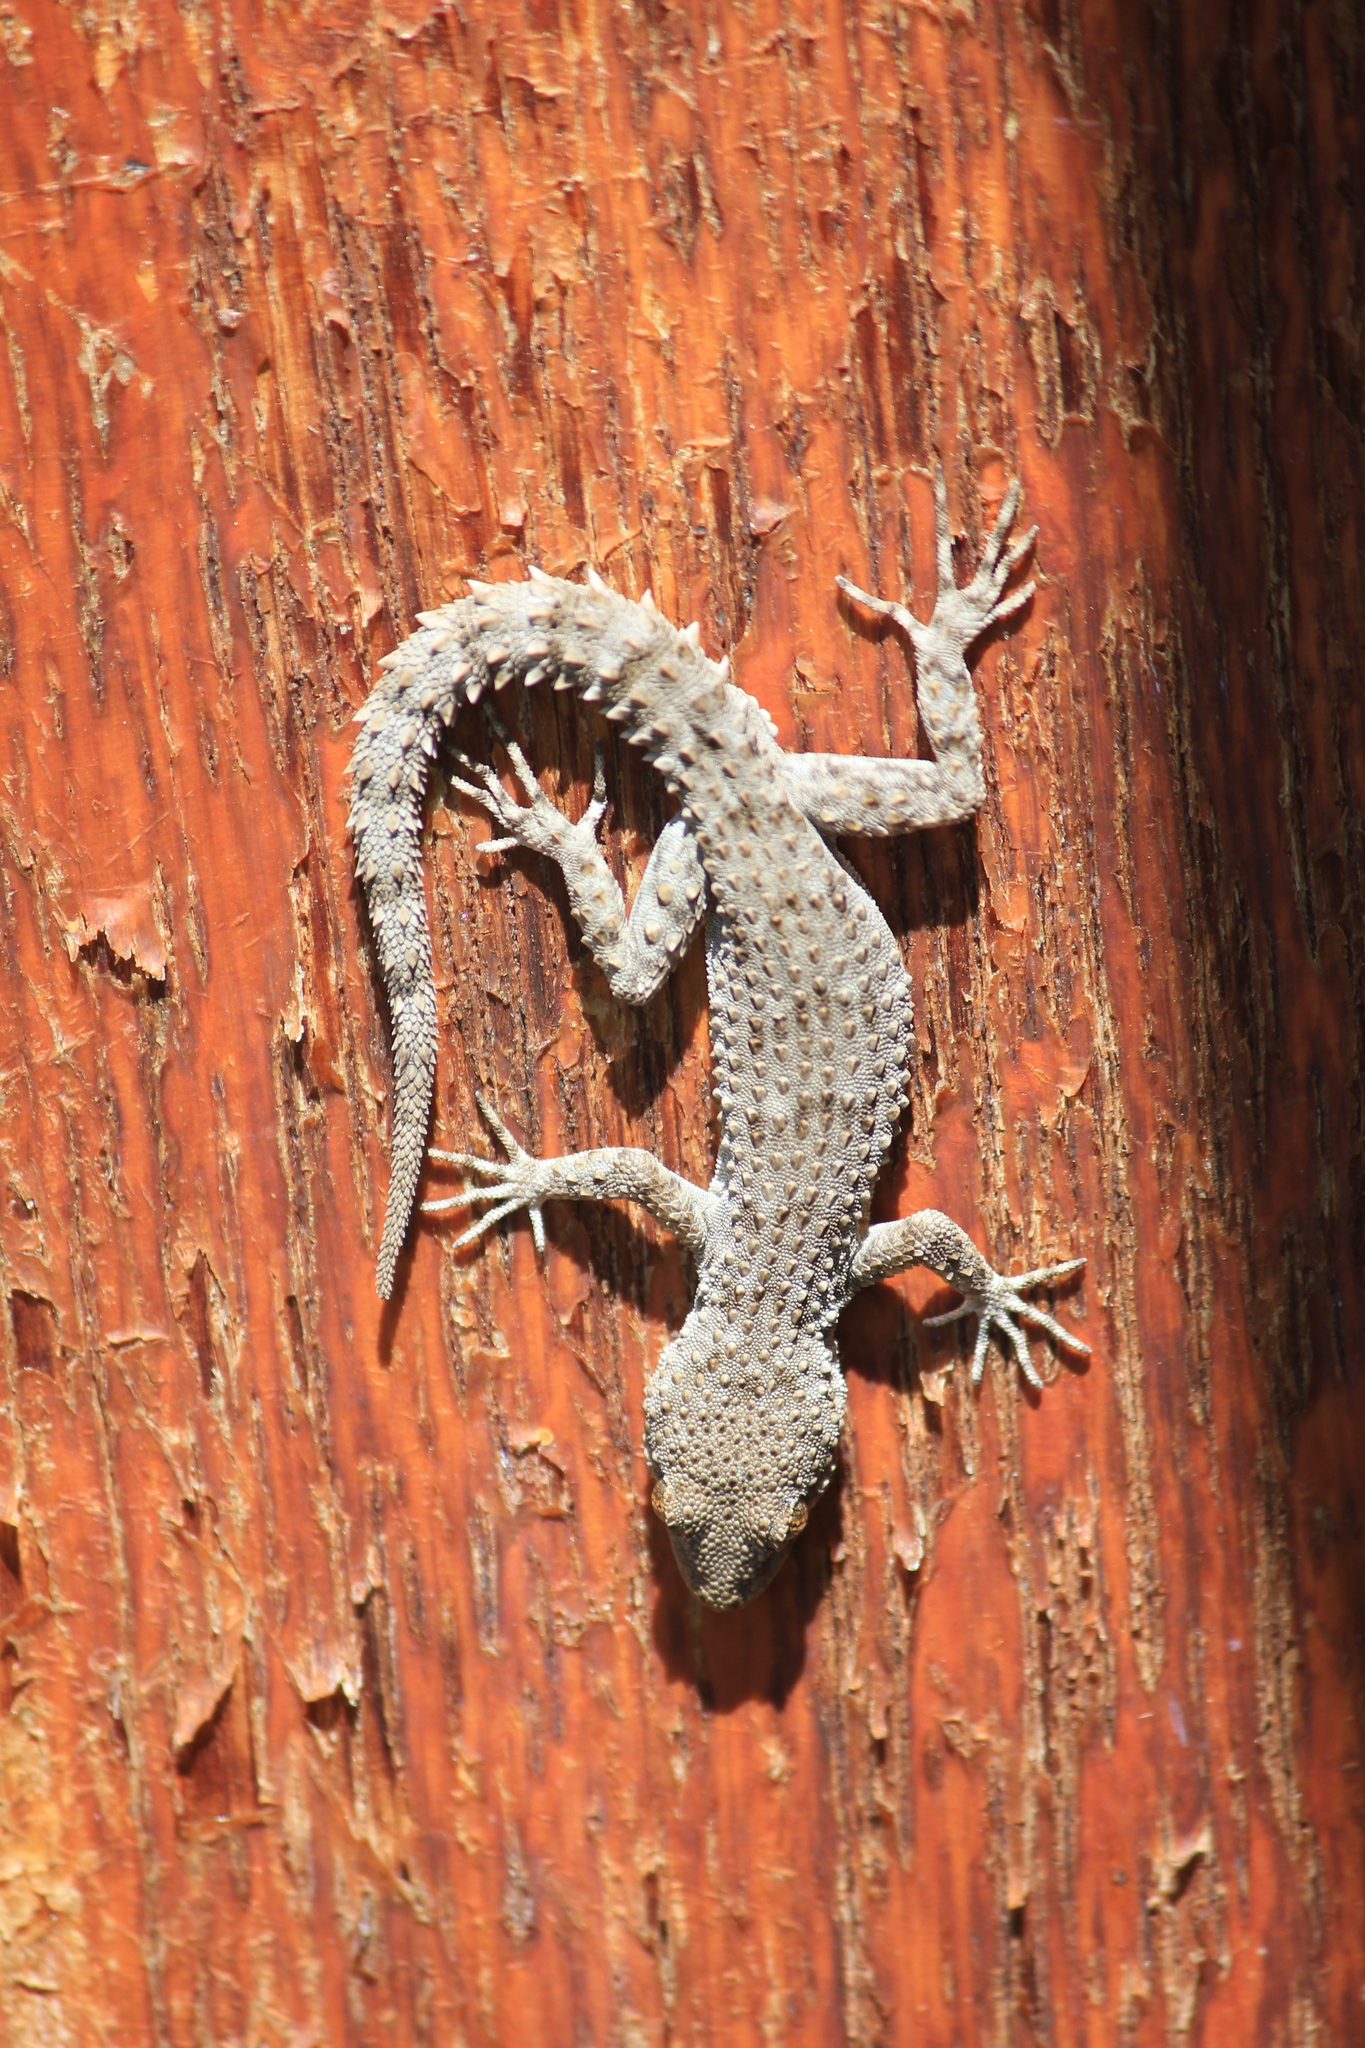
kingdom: Animalia
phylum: Chordata
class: Squamata
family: Gekkonidae
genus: Mediodactylus
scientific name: Mediodactylus kotschyi
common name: Kotschy's gecko
